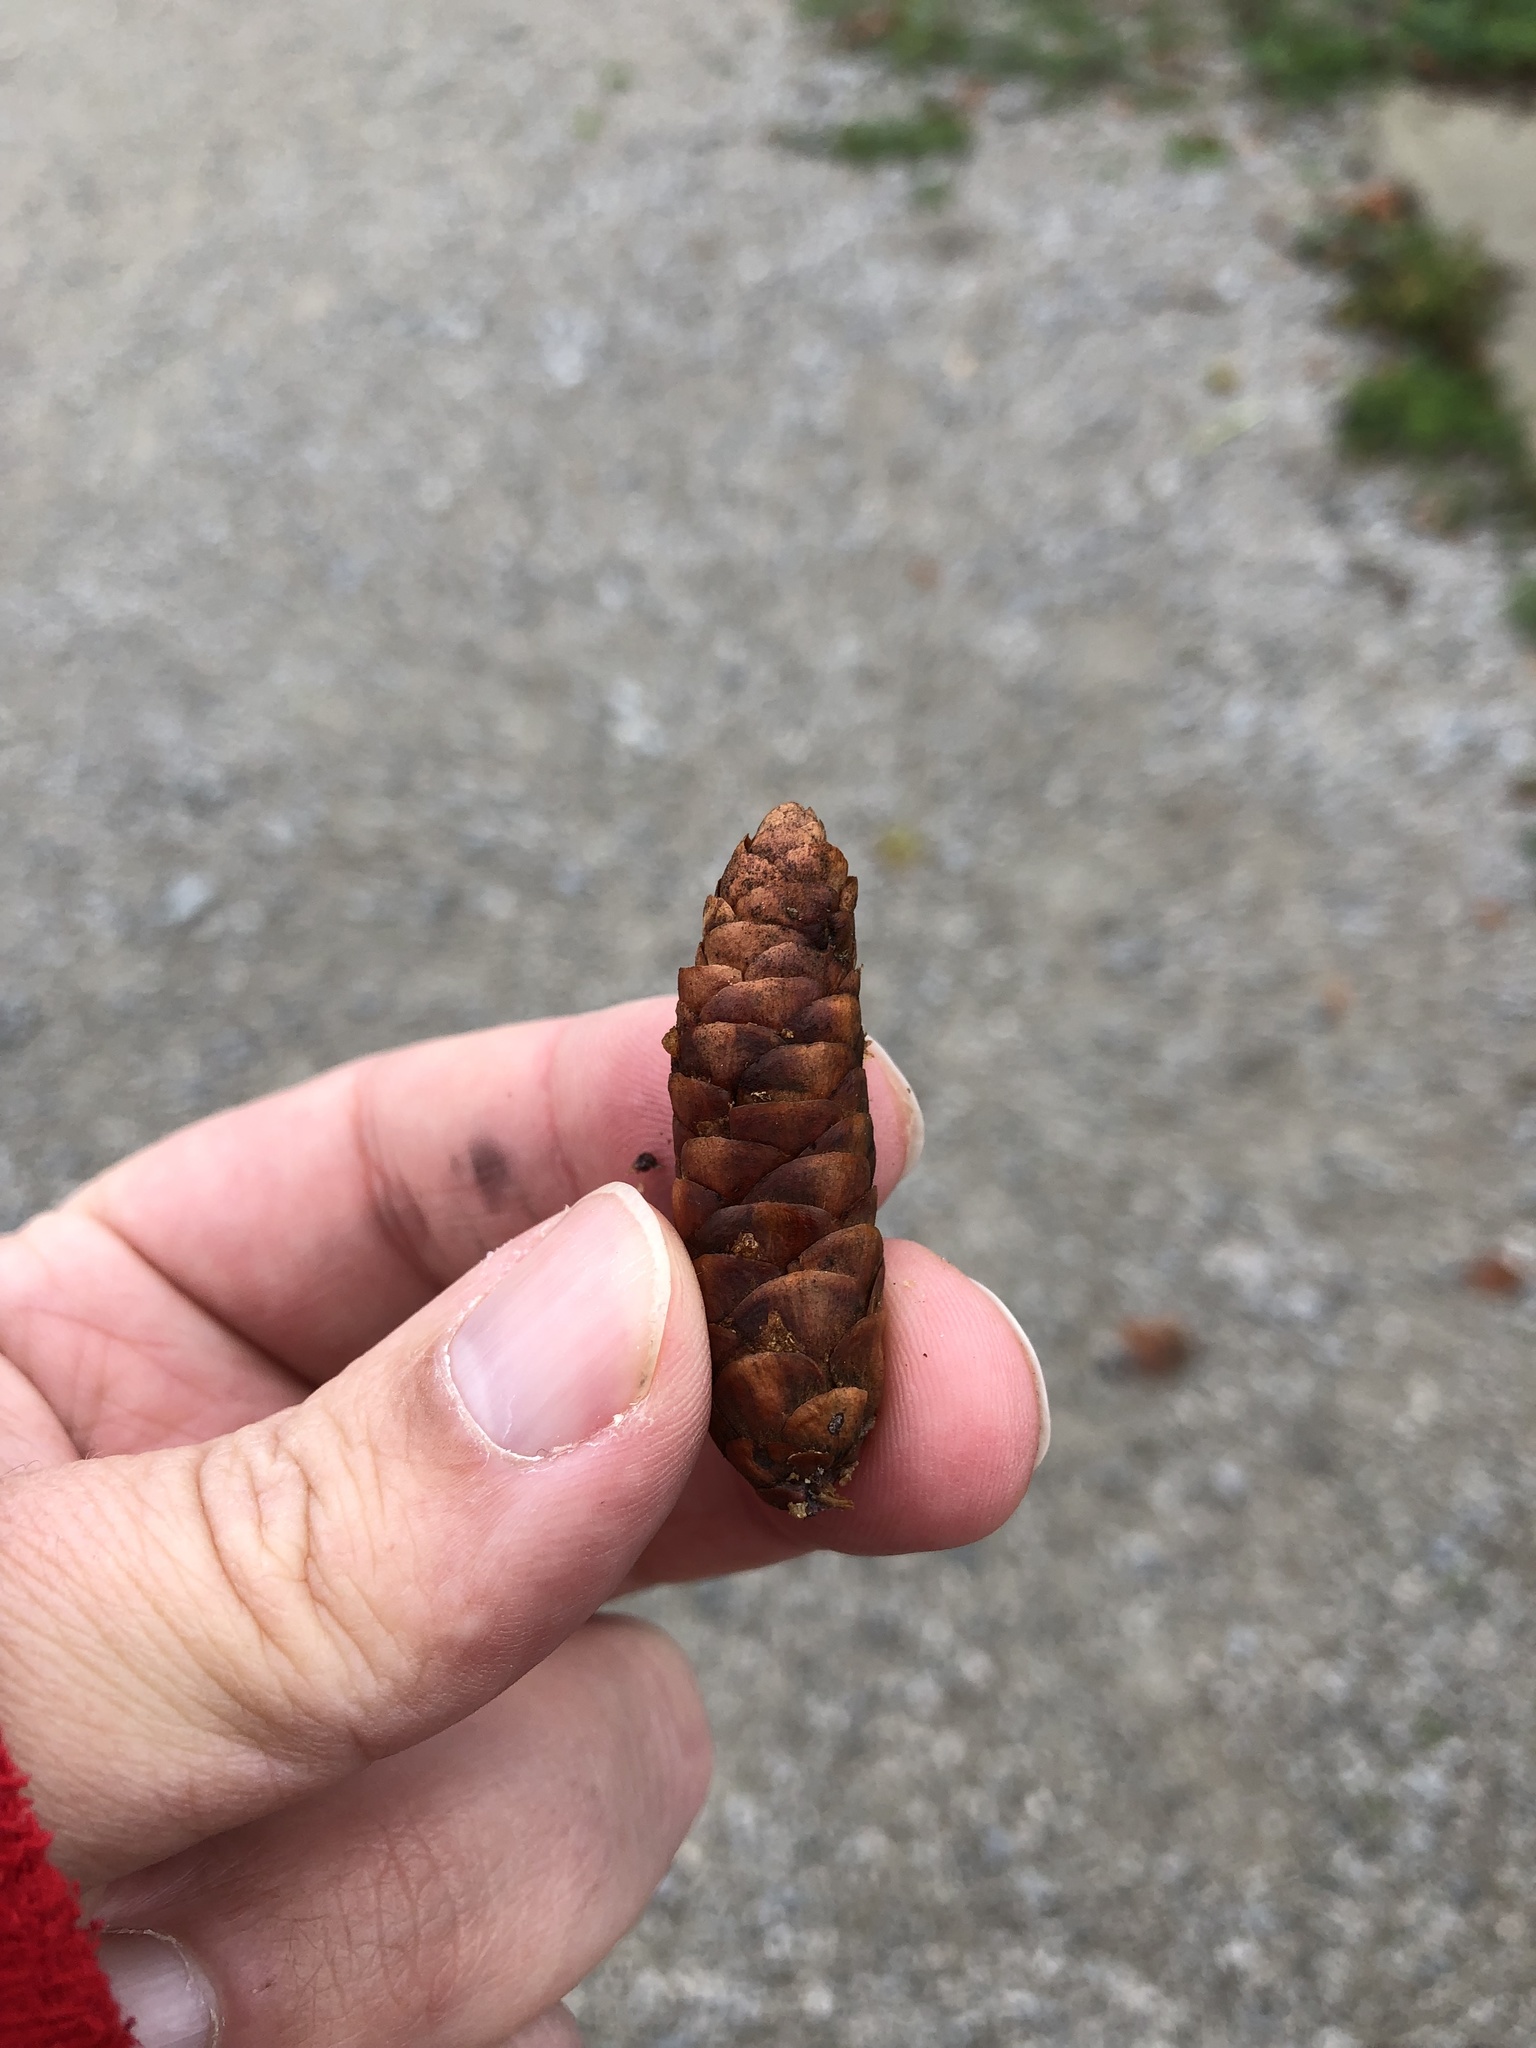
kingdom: Plantae
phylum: Tracheophyta
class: Pinopsida
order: Pinales
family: Pinaceae
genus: Picea
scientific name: Picea glauca
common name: White spruce
